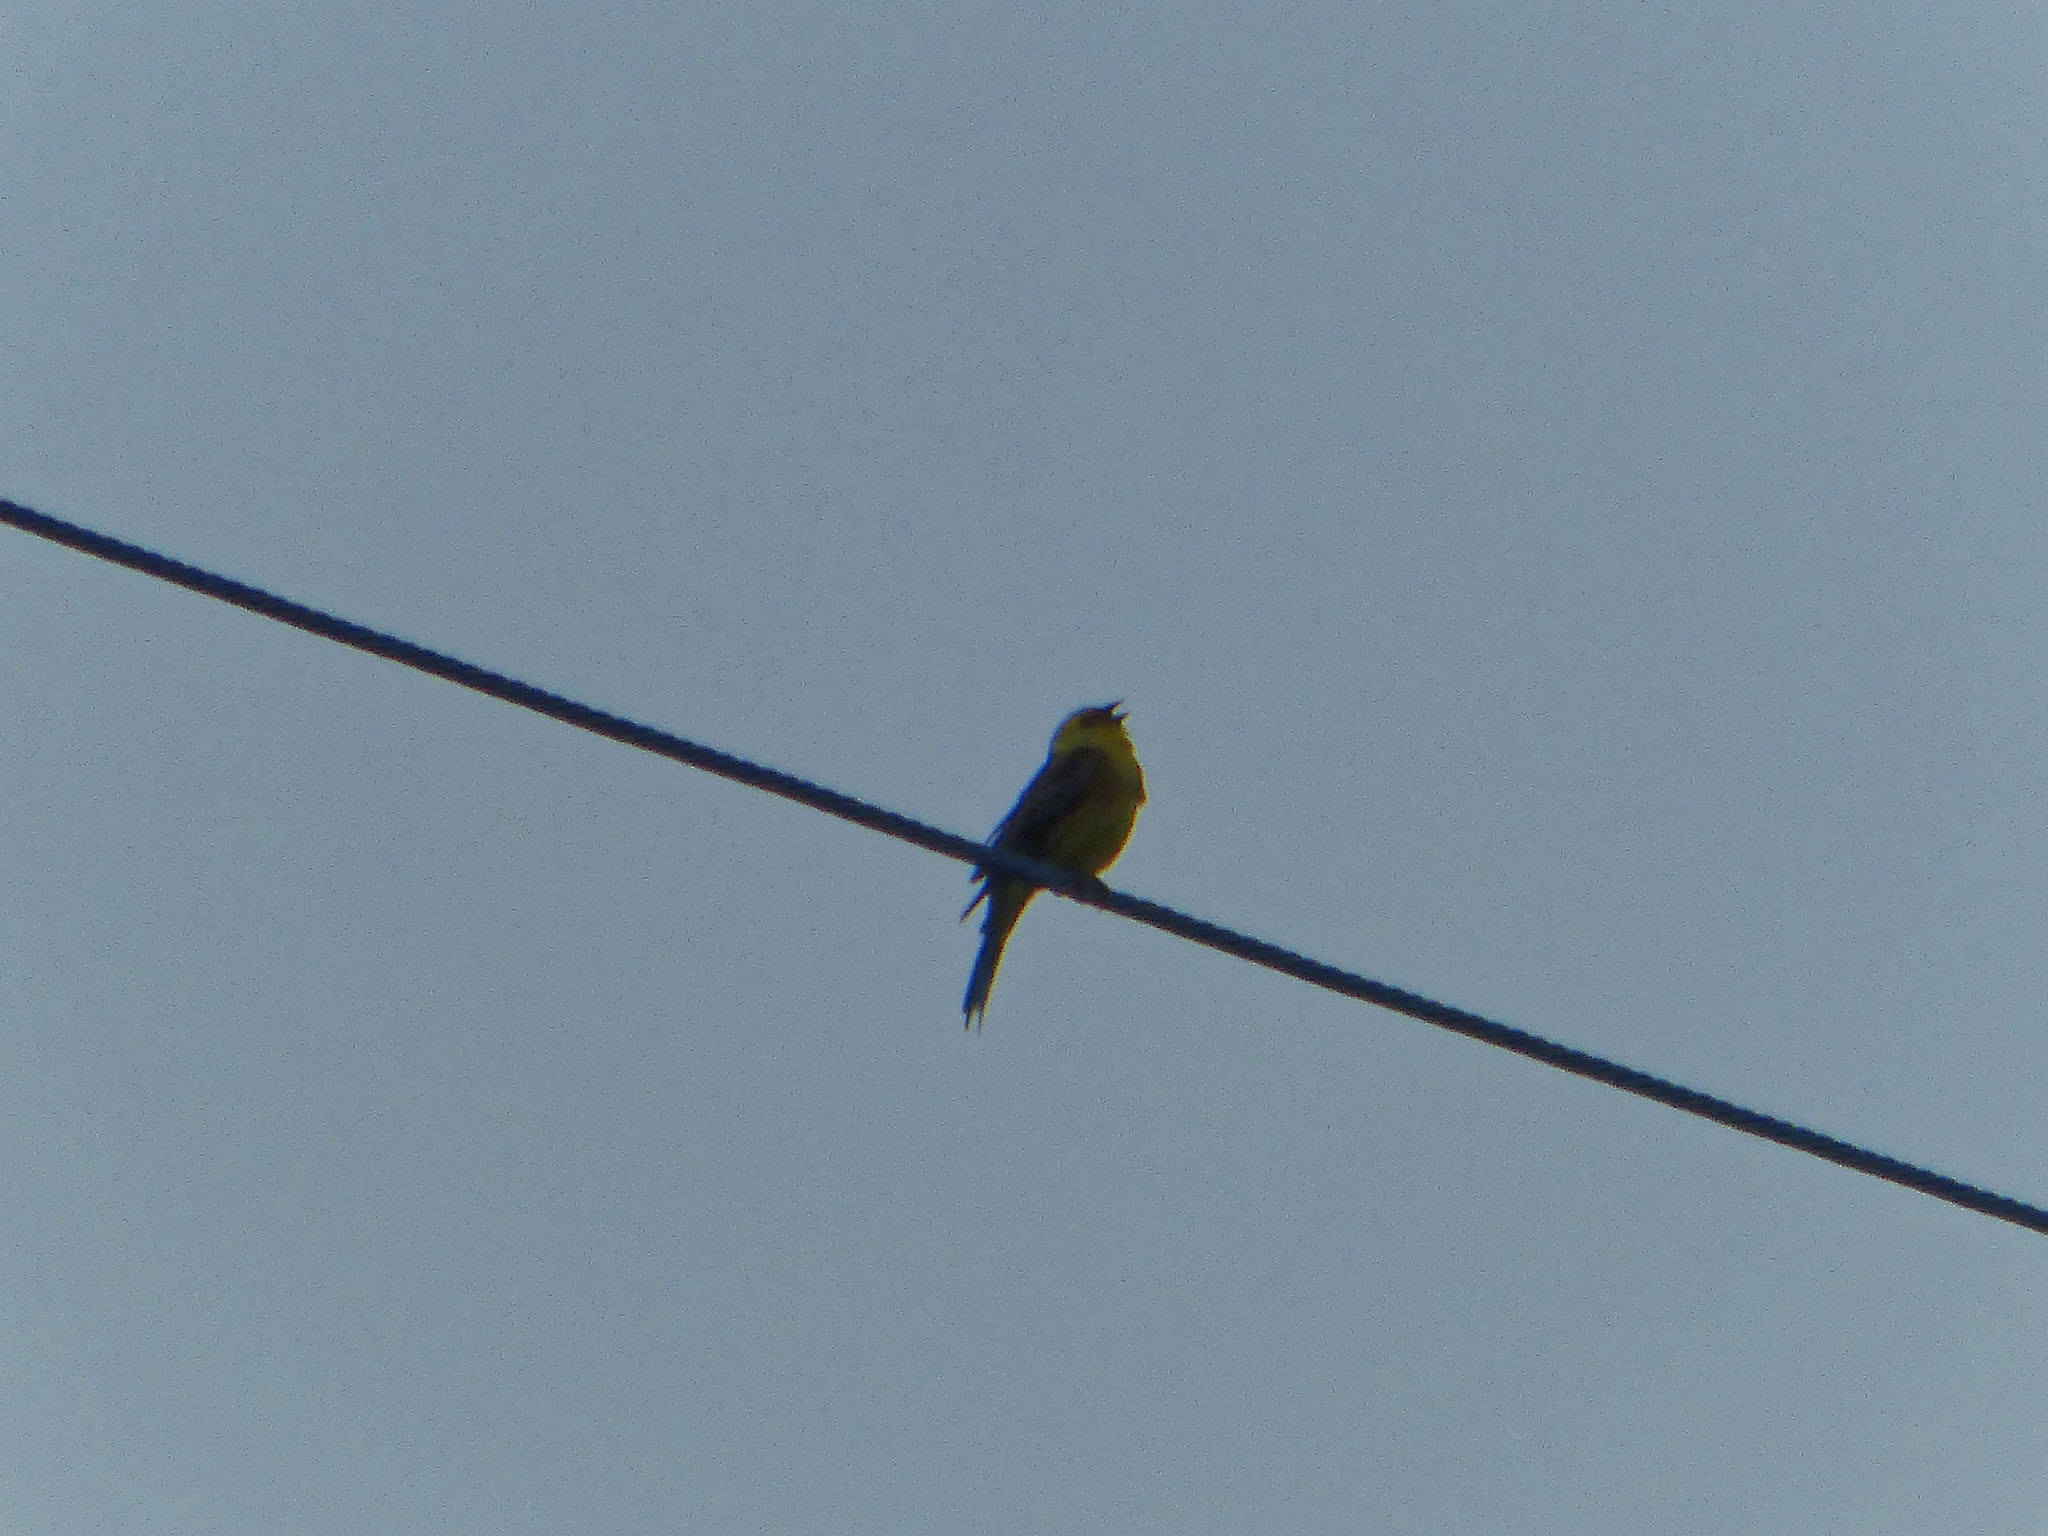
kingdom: Animalia
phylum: Chordata
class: Aves
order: Passeriformes
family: Emberizidae
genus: Emberiza
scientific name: Emberiza citrinella
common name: Yellowhammer
